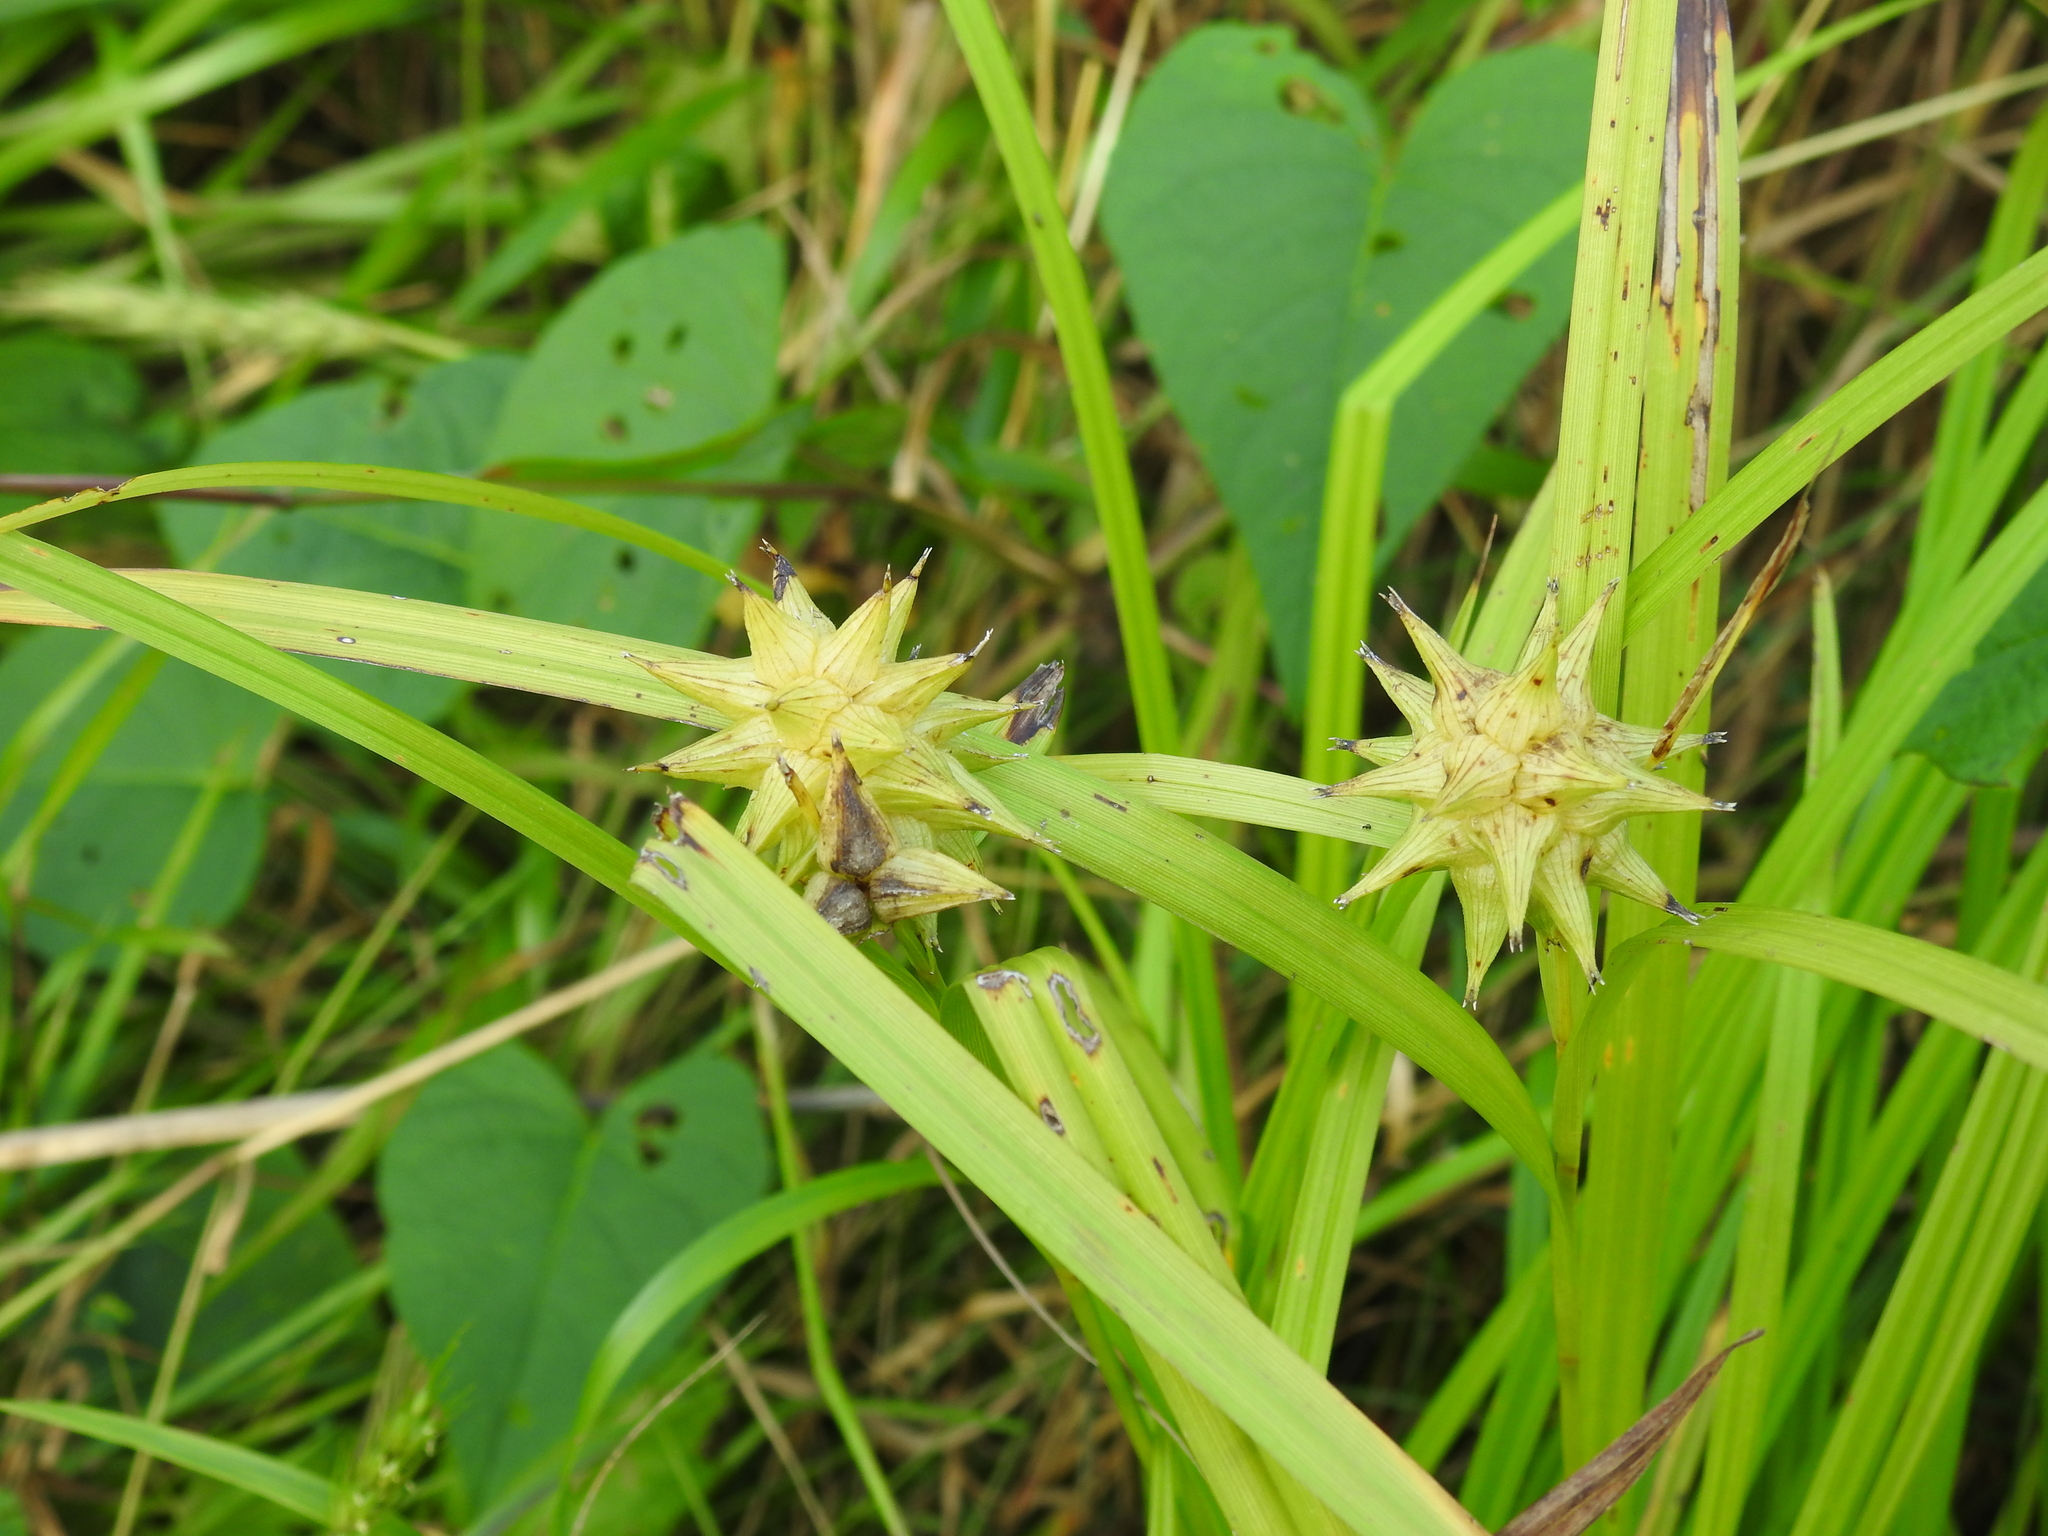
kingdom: Plantae
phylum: Tracheophyta
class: Liliopsida
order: Poales
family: Cyperaceae
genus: Carex
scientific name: Carex grayi
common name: Asa gray's sedge
